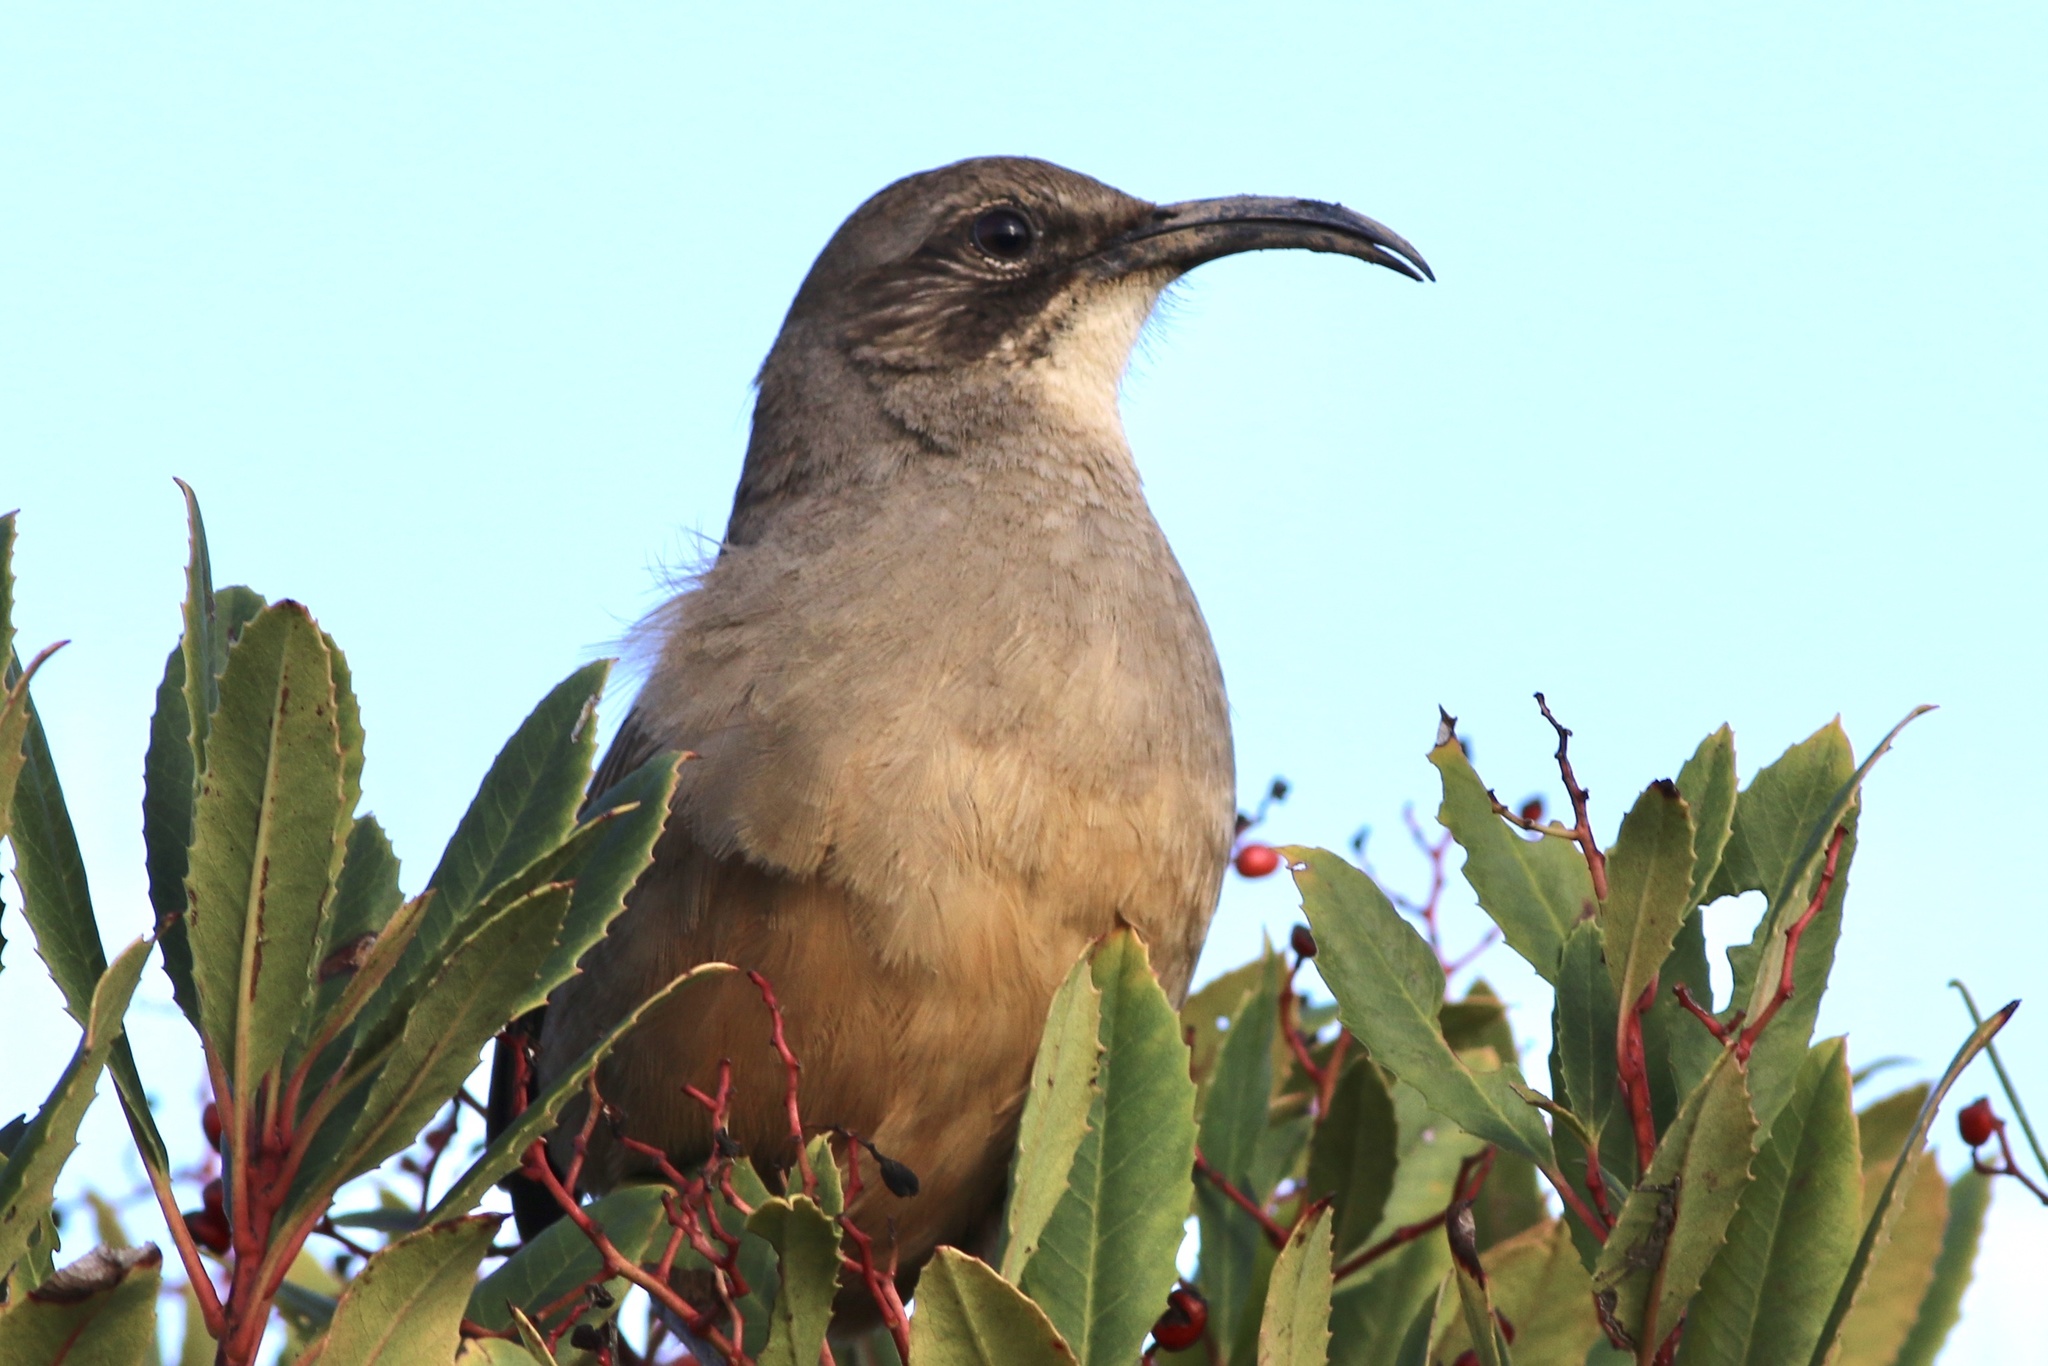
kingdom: Animalia
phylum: Chordata
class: Aves
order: Passeriformes
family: Mimidae
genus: Toxostoma
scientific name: Toxostoma redivivum
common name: California thrasher
